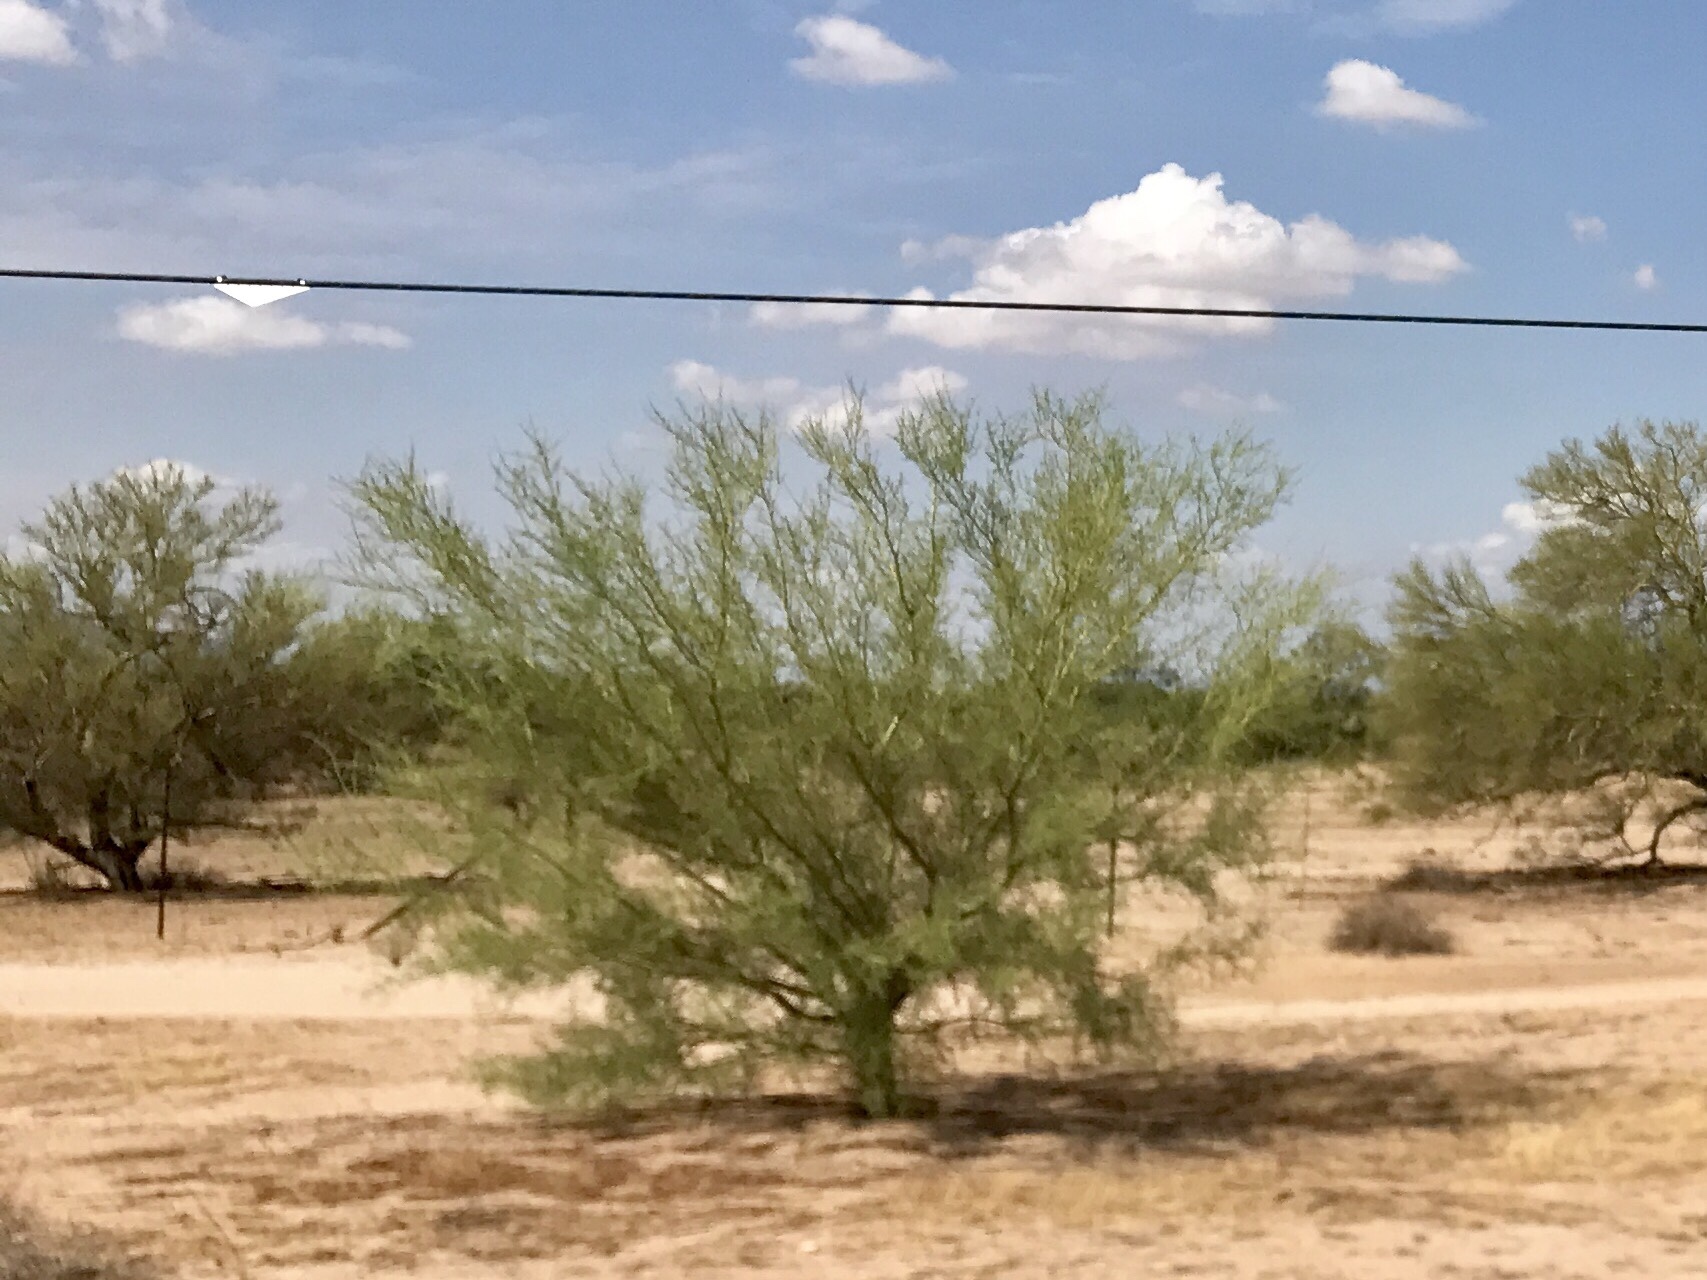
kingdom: Plantae
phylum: Tracheophyta
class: Magnoliopsida
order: Fabales
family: Fabaceae
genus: Parkinsonia
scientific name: Parkinsonia microphylla
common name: Yellow paloverde
